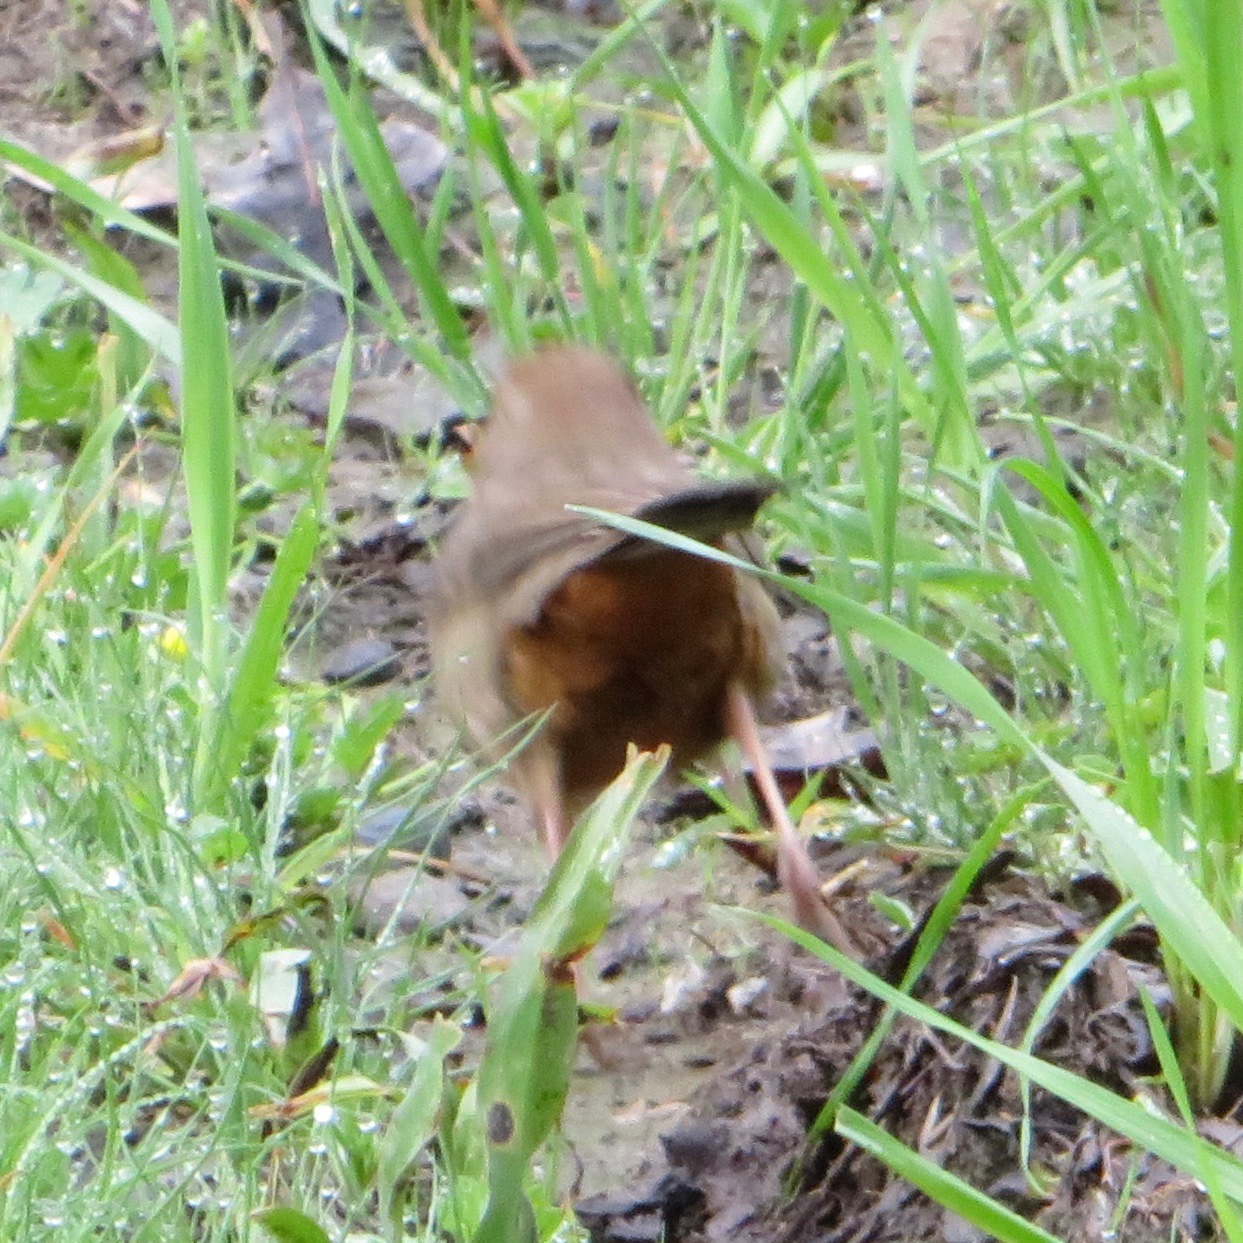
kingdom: Animalia
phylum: Chordata
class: Aves
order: Passeriformes
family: Passerellidae
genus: Melozone
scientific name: Melozone crissalis
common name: California towhee
